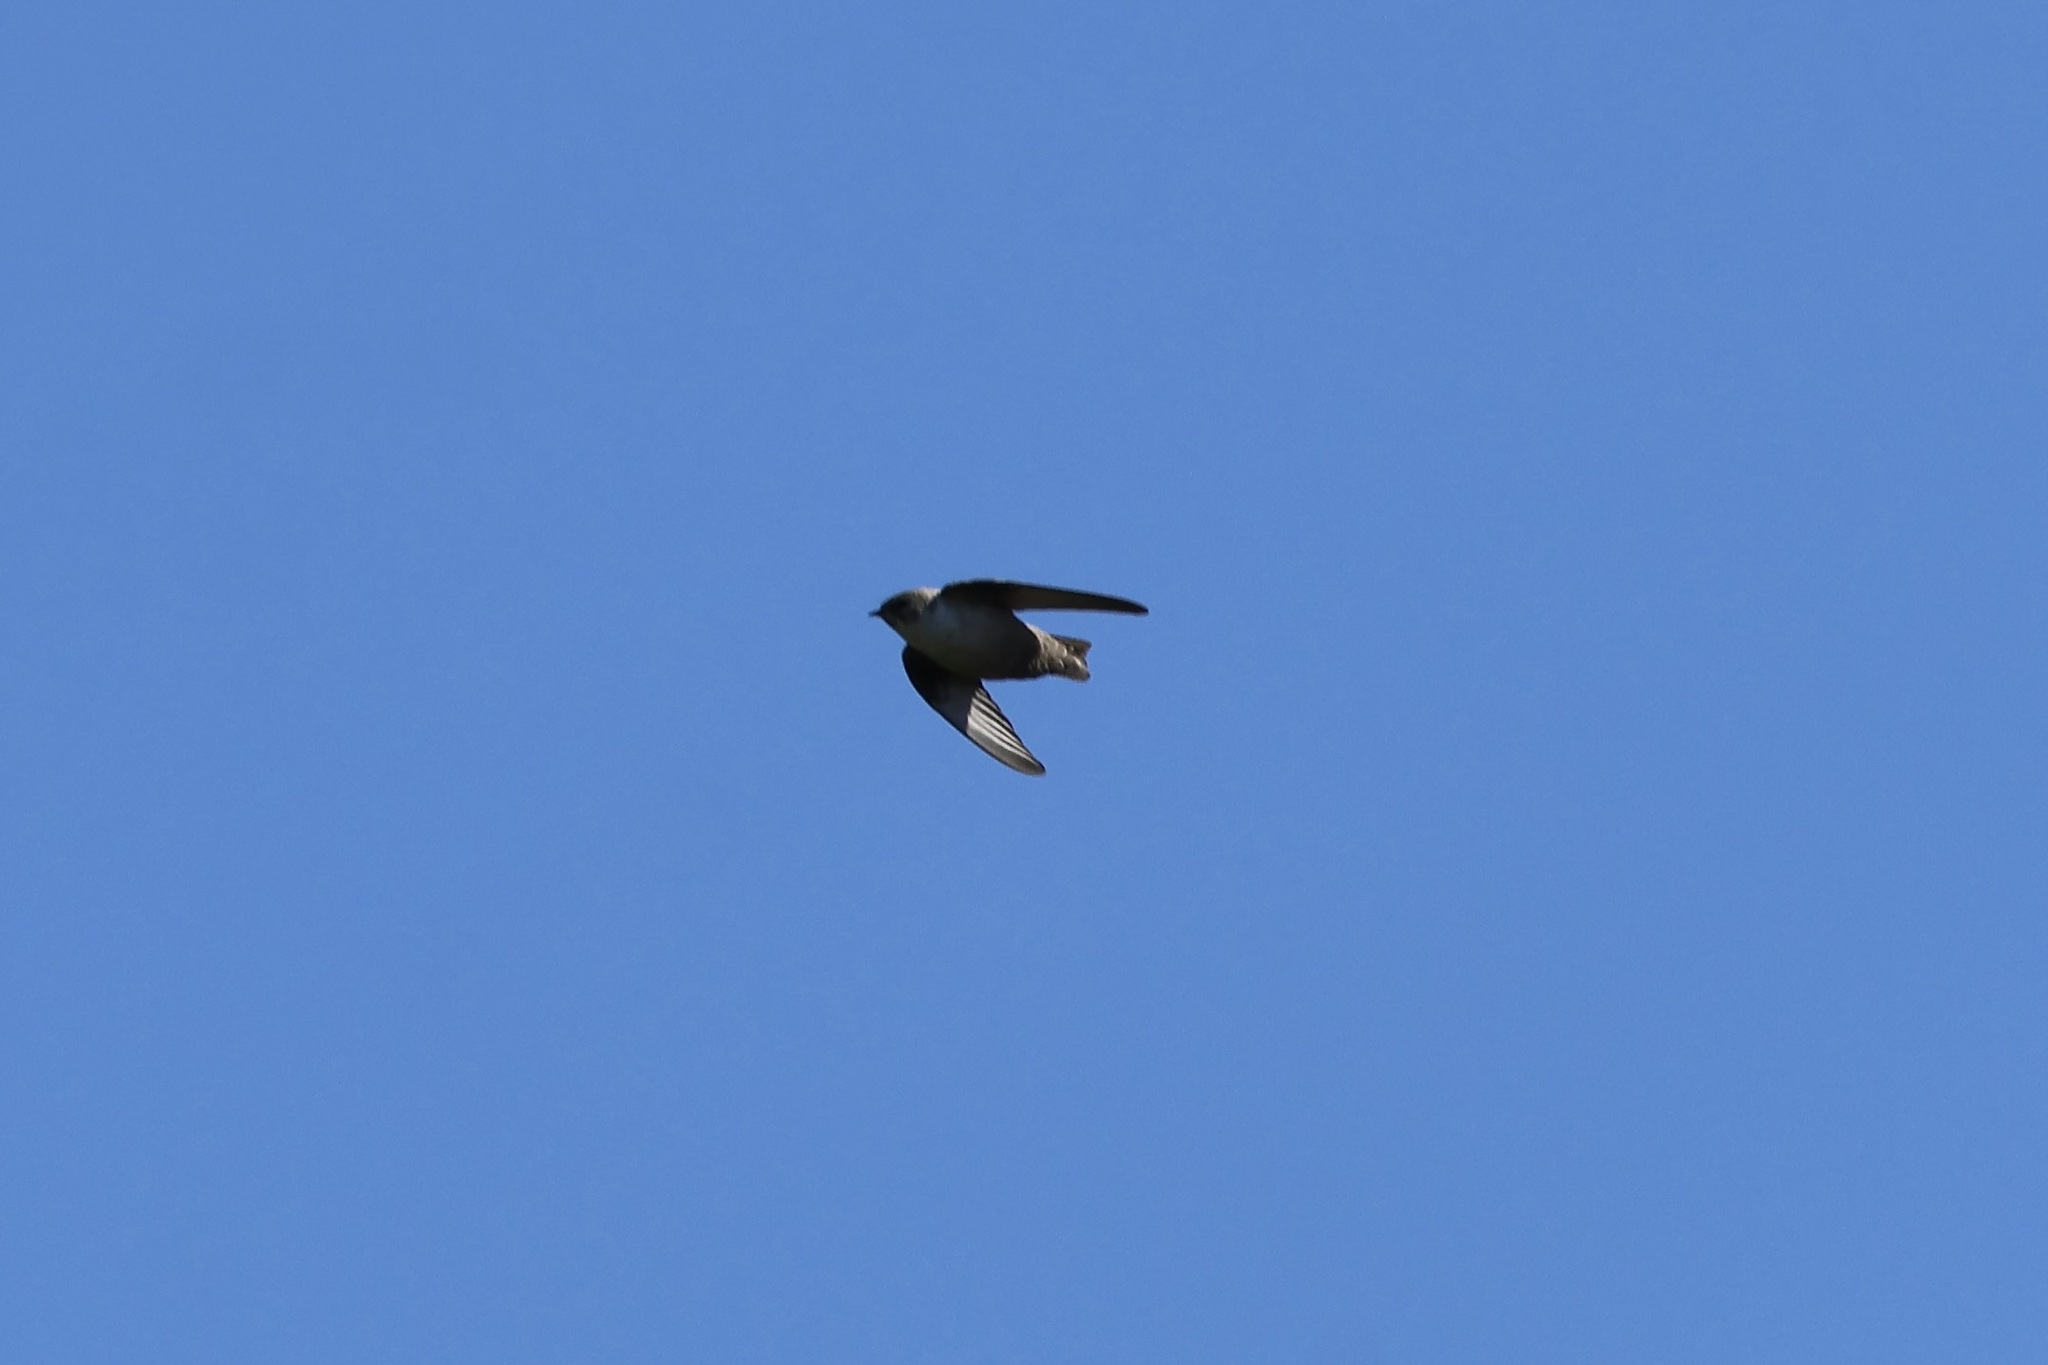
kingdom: Animalia
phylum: Chordata
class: Aves
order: Passeriformes
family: Hirundinidae
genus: Ptyonoprogne
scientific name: Ptyonoprogne rupestris
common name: Eurasian crag martin
